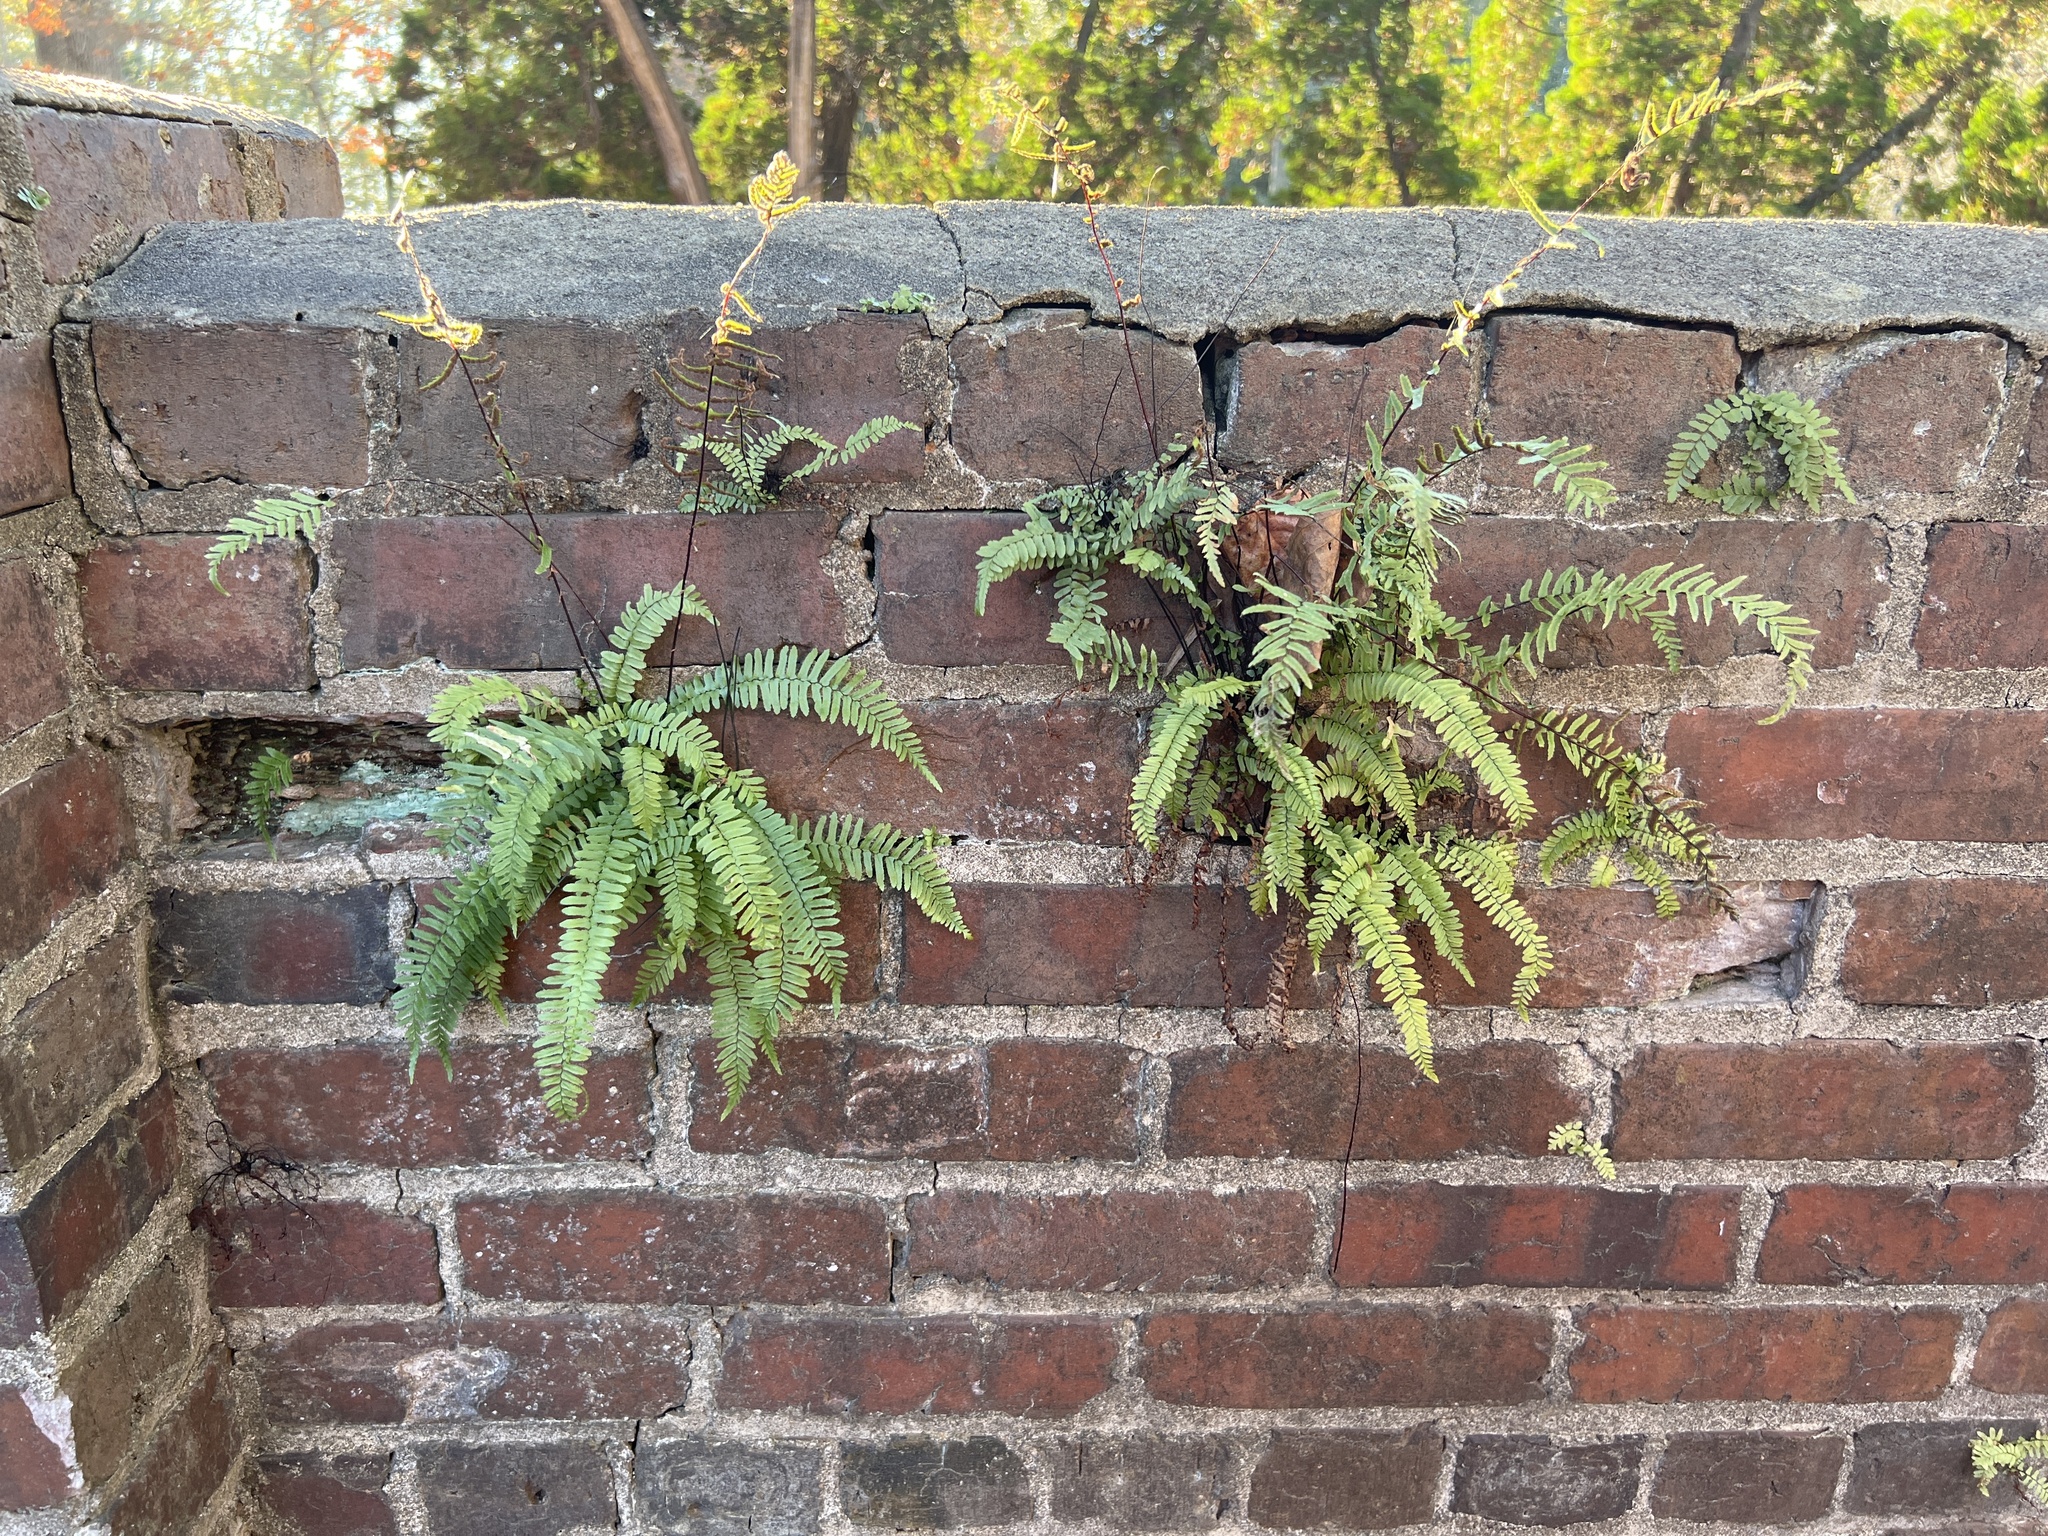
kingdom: Plantae
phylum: Tracheophyta
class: Polypodiopsida
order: Polypodiales
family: Aspleniaceae
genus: Asplenium
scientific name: Asplenium platyneuron
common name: Ebony spleenwort
